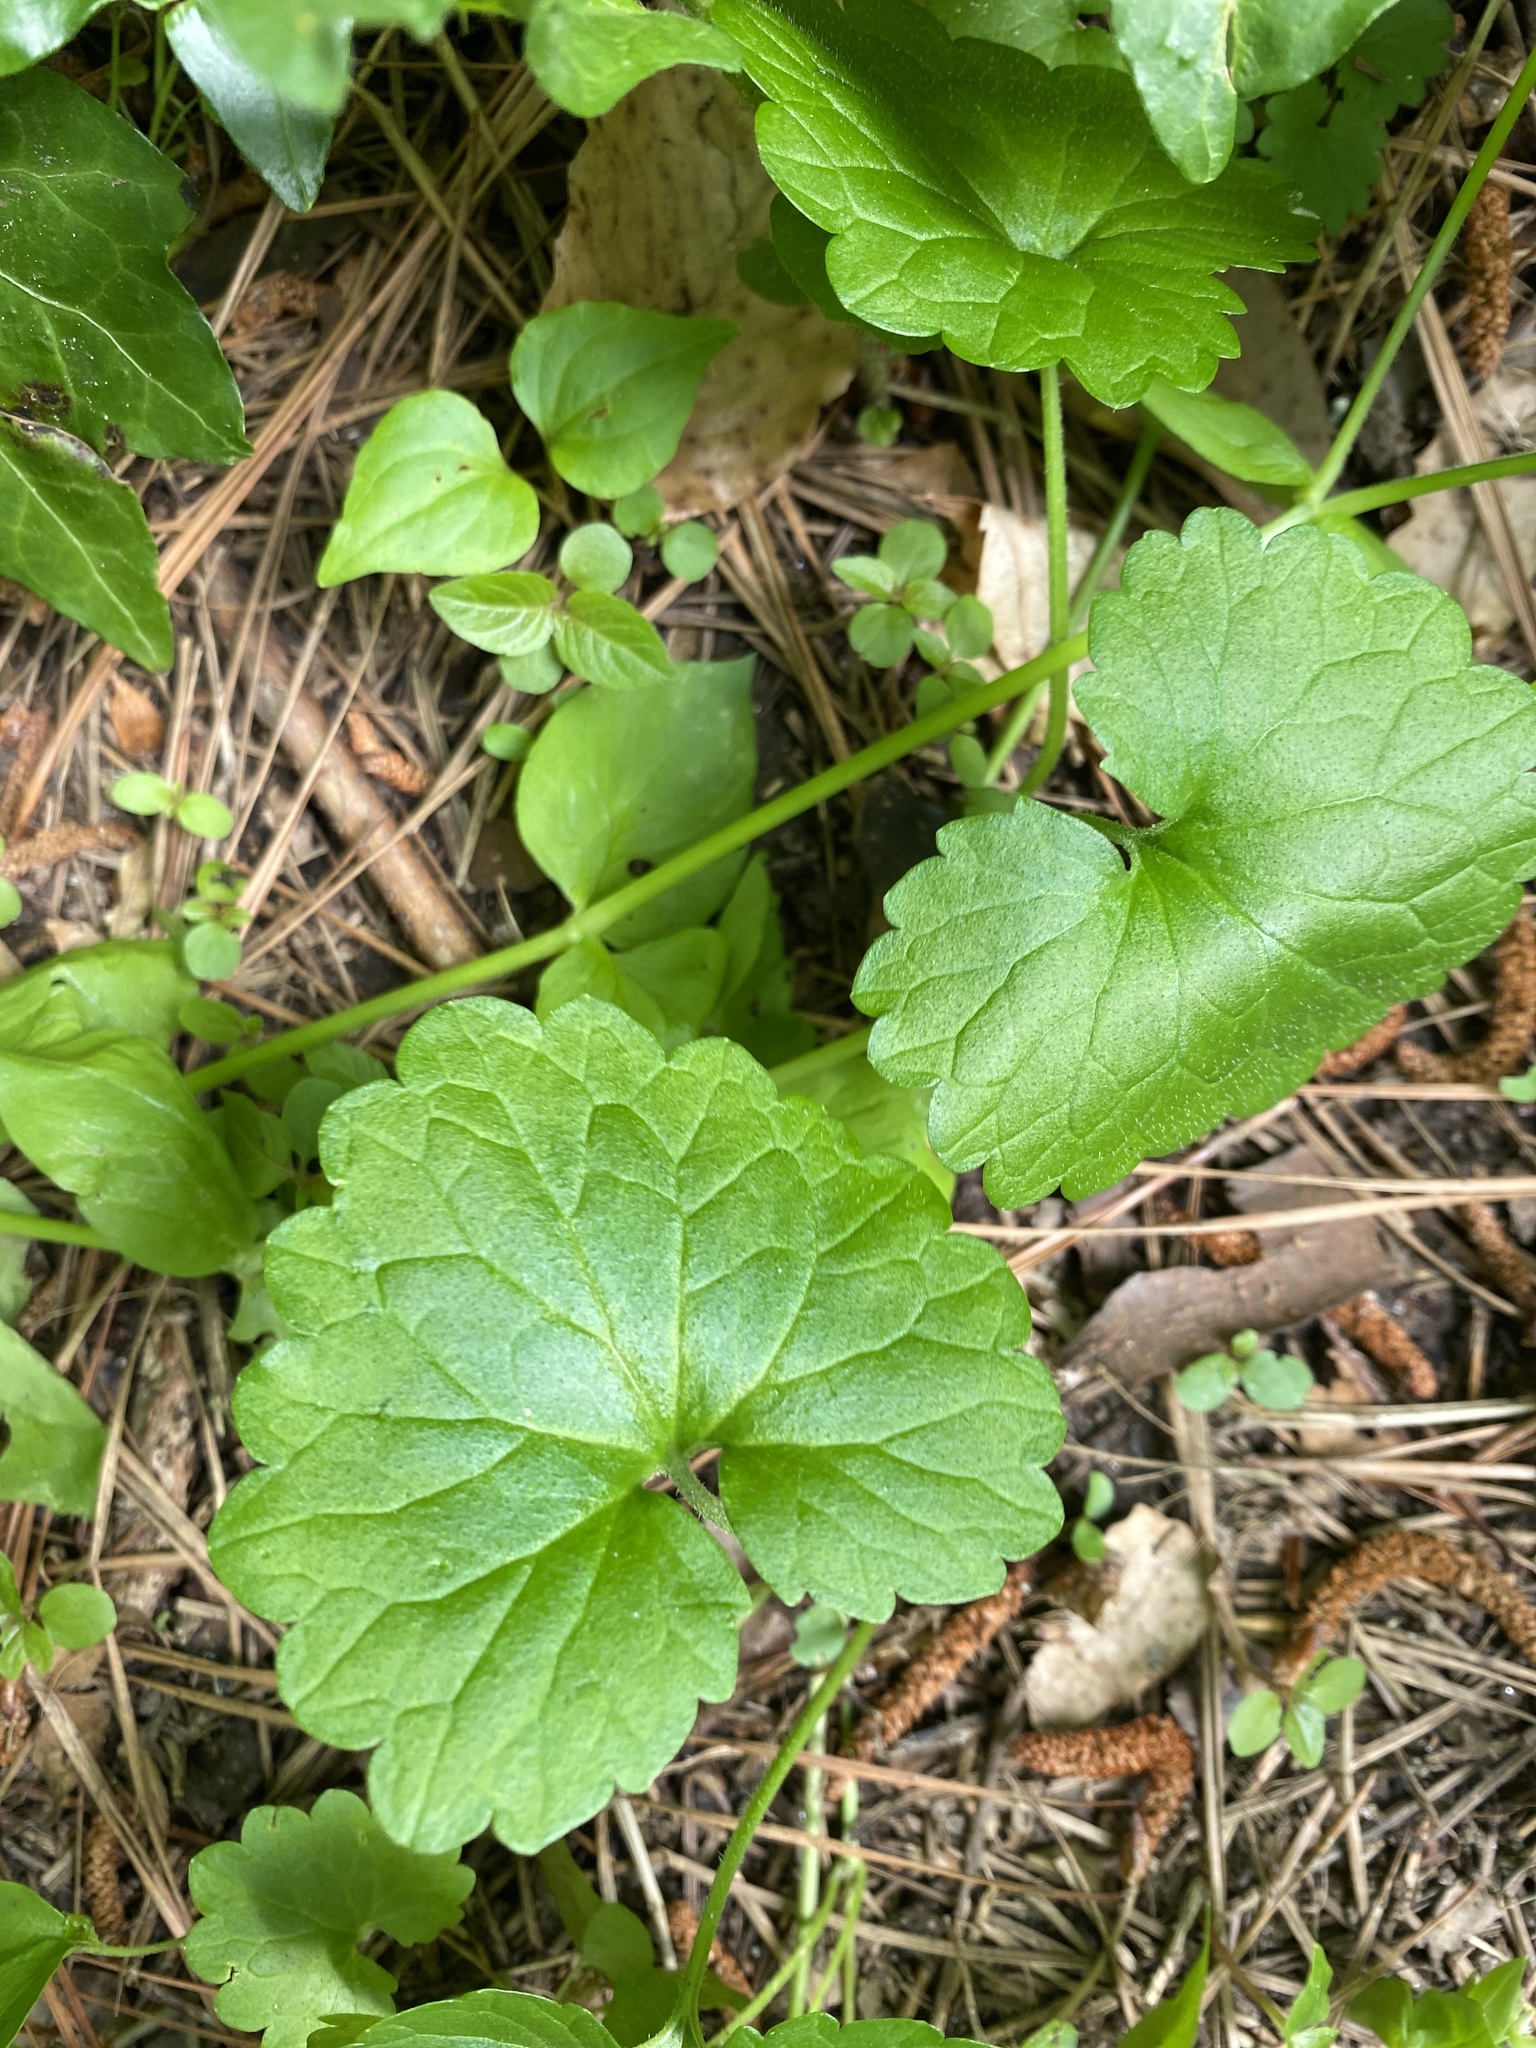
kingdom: Plantae
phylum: Tracheophyta
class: Magnoliopsida
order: Lamiales
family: Lamiaceae
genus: Glechoma
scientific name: Glechoma hederacea
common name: Ground ivy
